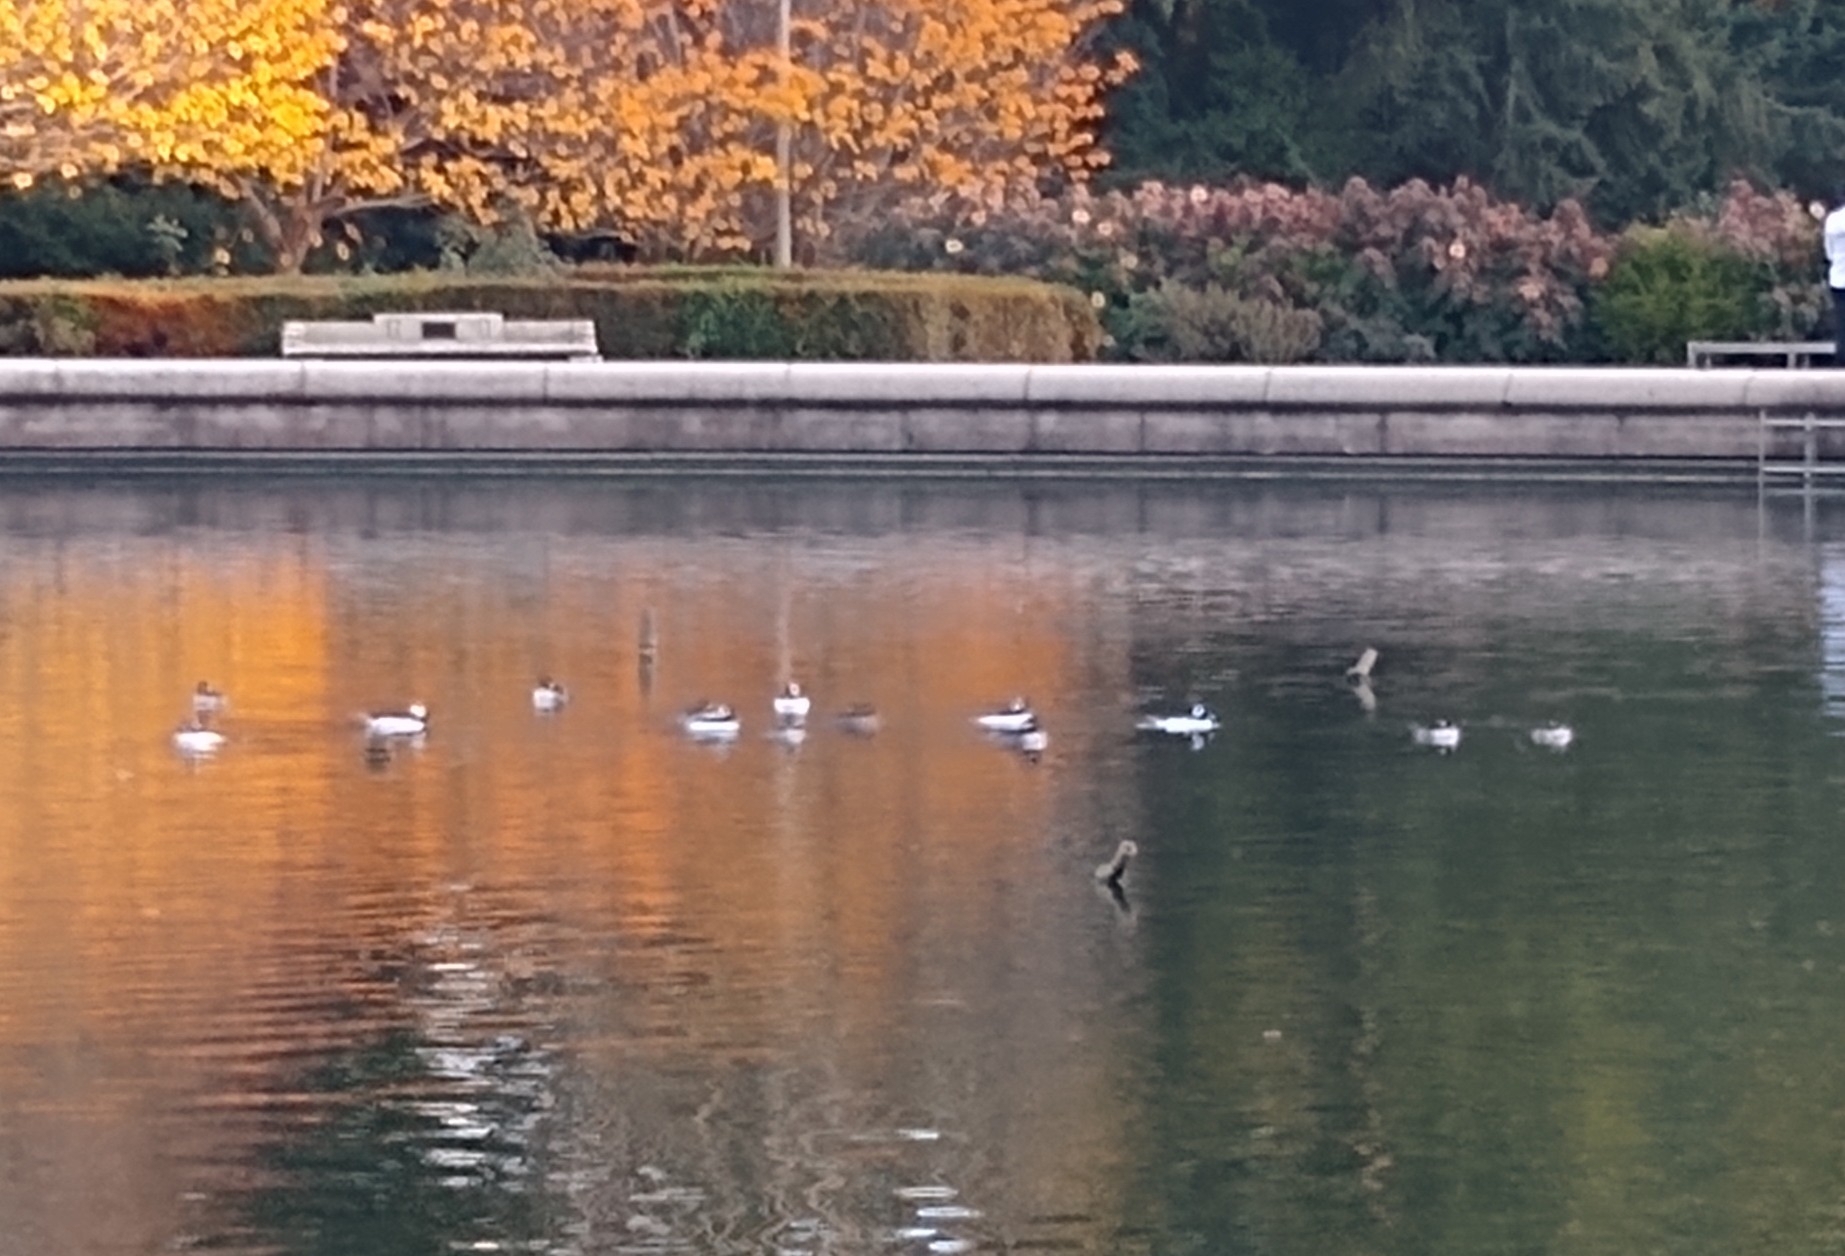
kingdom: Animalia
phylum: Chordata
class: Aves
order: Anseriformes
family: Anatidae
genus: Bucephala
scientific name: Bucephala albeola
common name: Bufflehead
